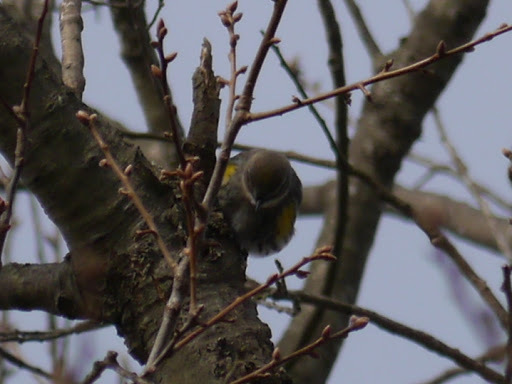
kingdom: Animalia
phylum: Chordata
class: Aves
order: Passeriformes
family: Parulidae
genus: Setophaga
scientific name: Setophaga coronata
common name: Myrtle warbler
